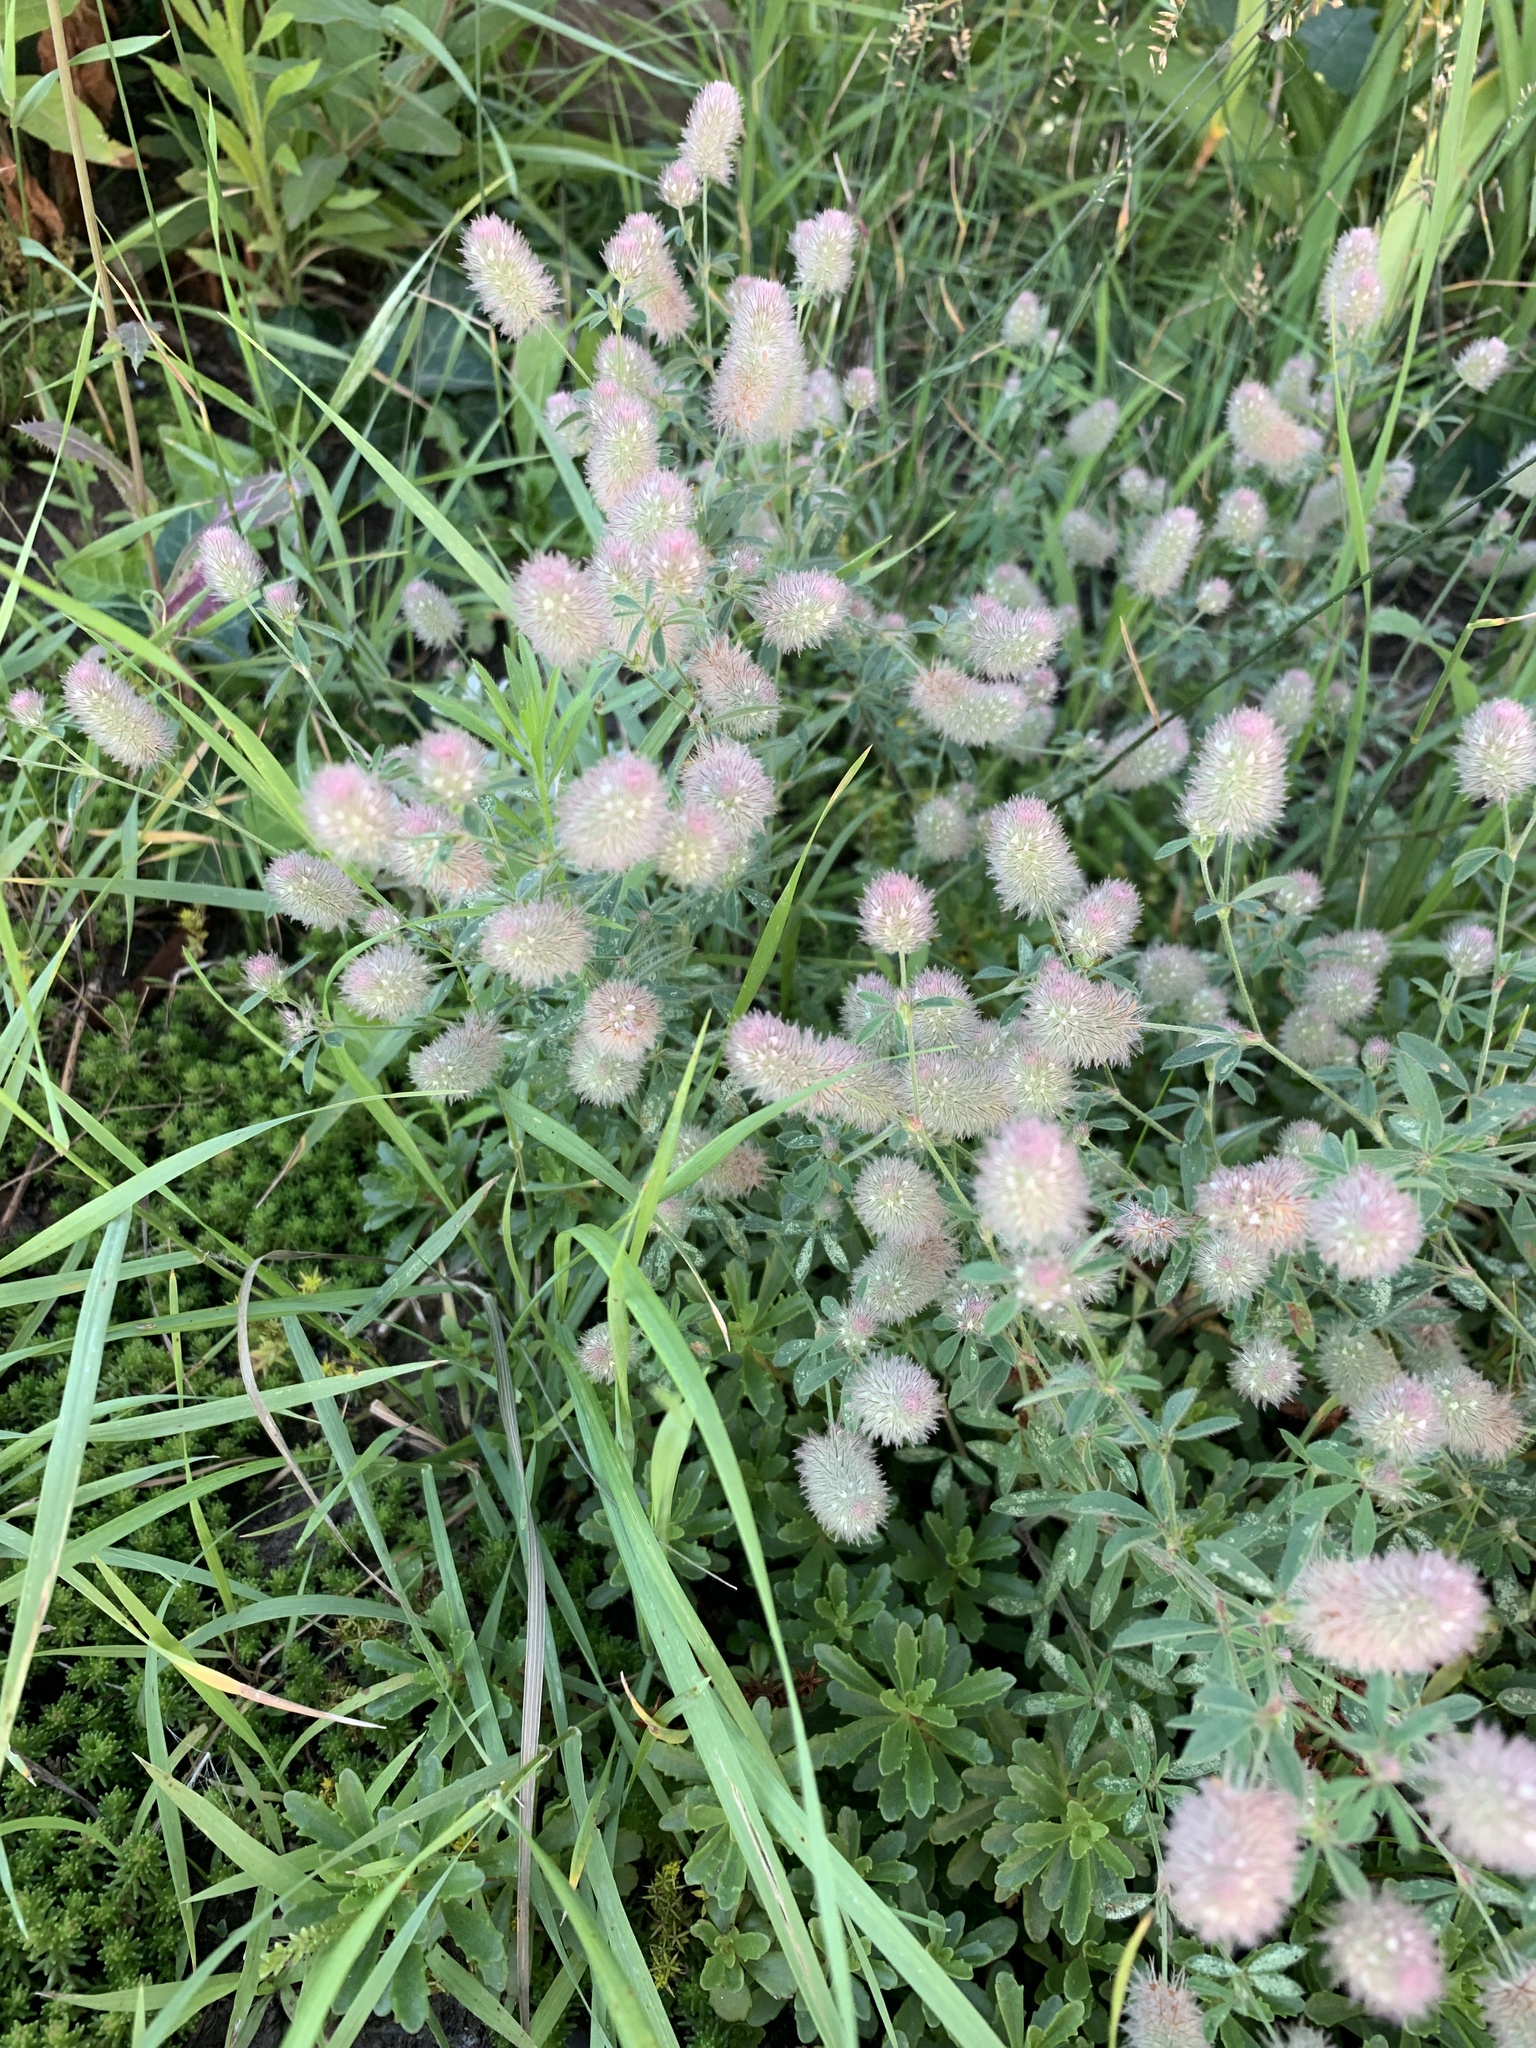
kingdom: Plantae
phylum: Tracheophyta
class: Magnoliopsida
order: Fabales
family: Fabaceae
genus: Trifolium
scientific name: Trifolium arvense
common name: Hare's-foot clover
